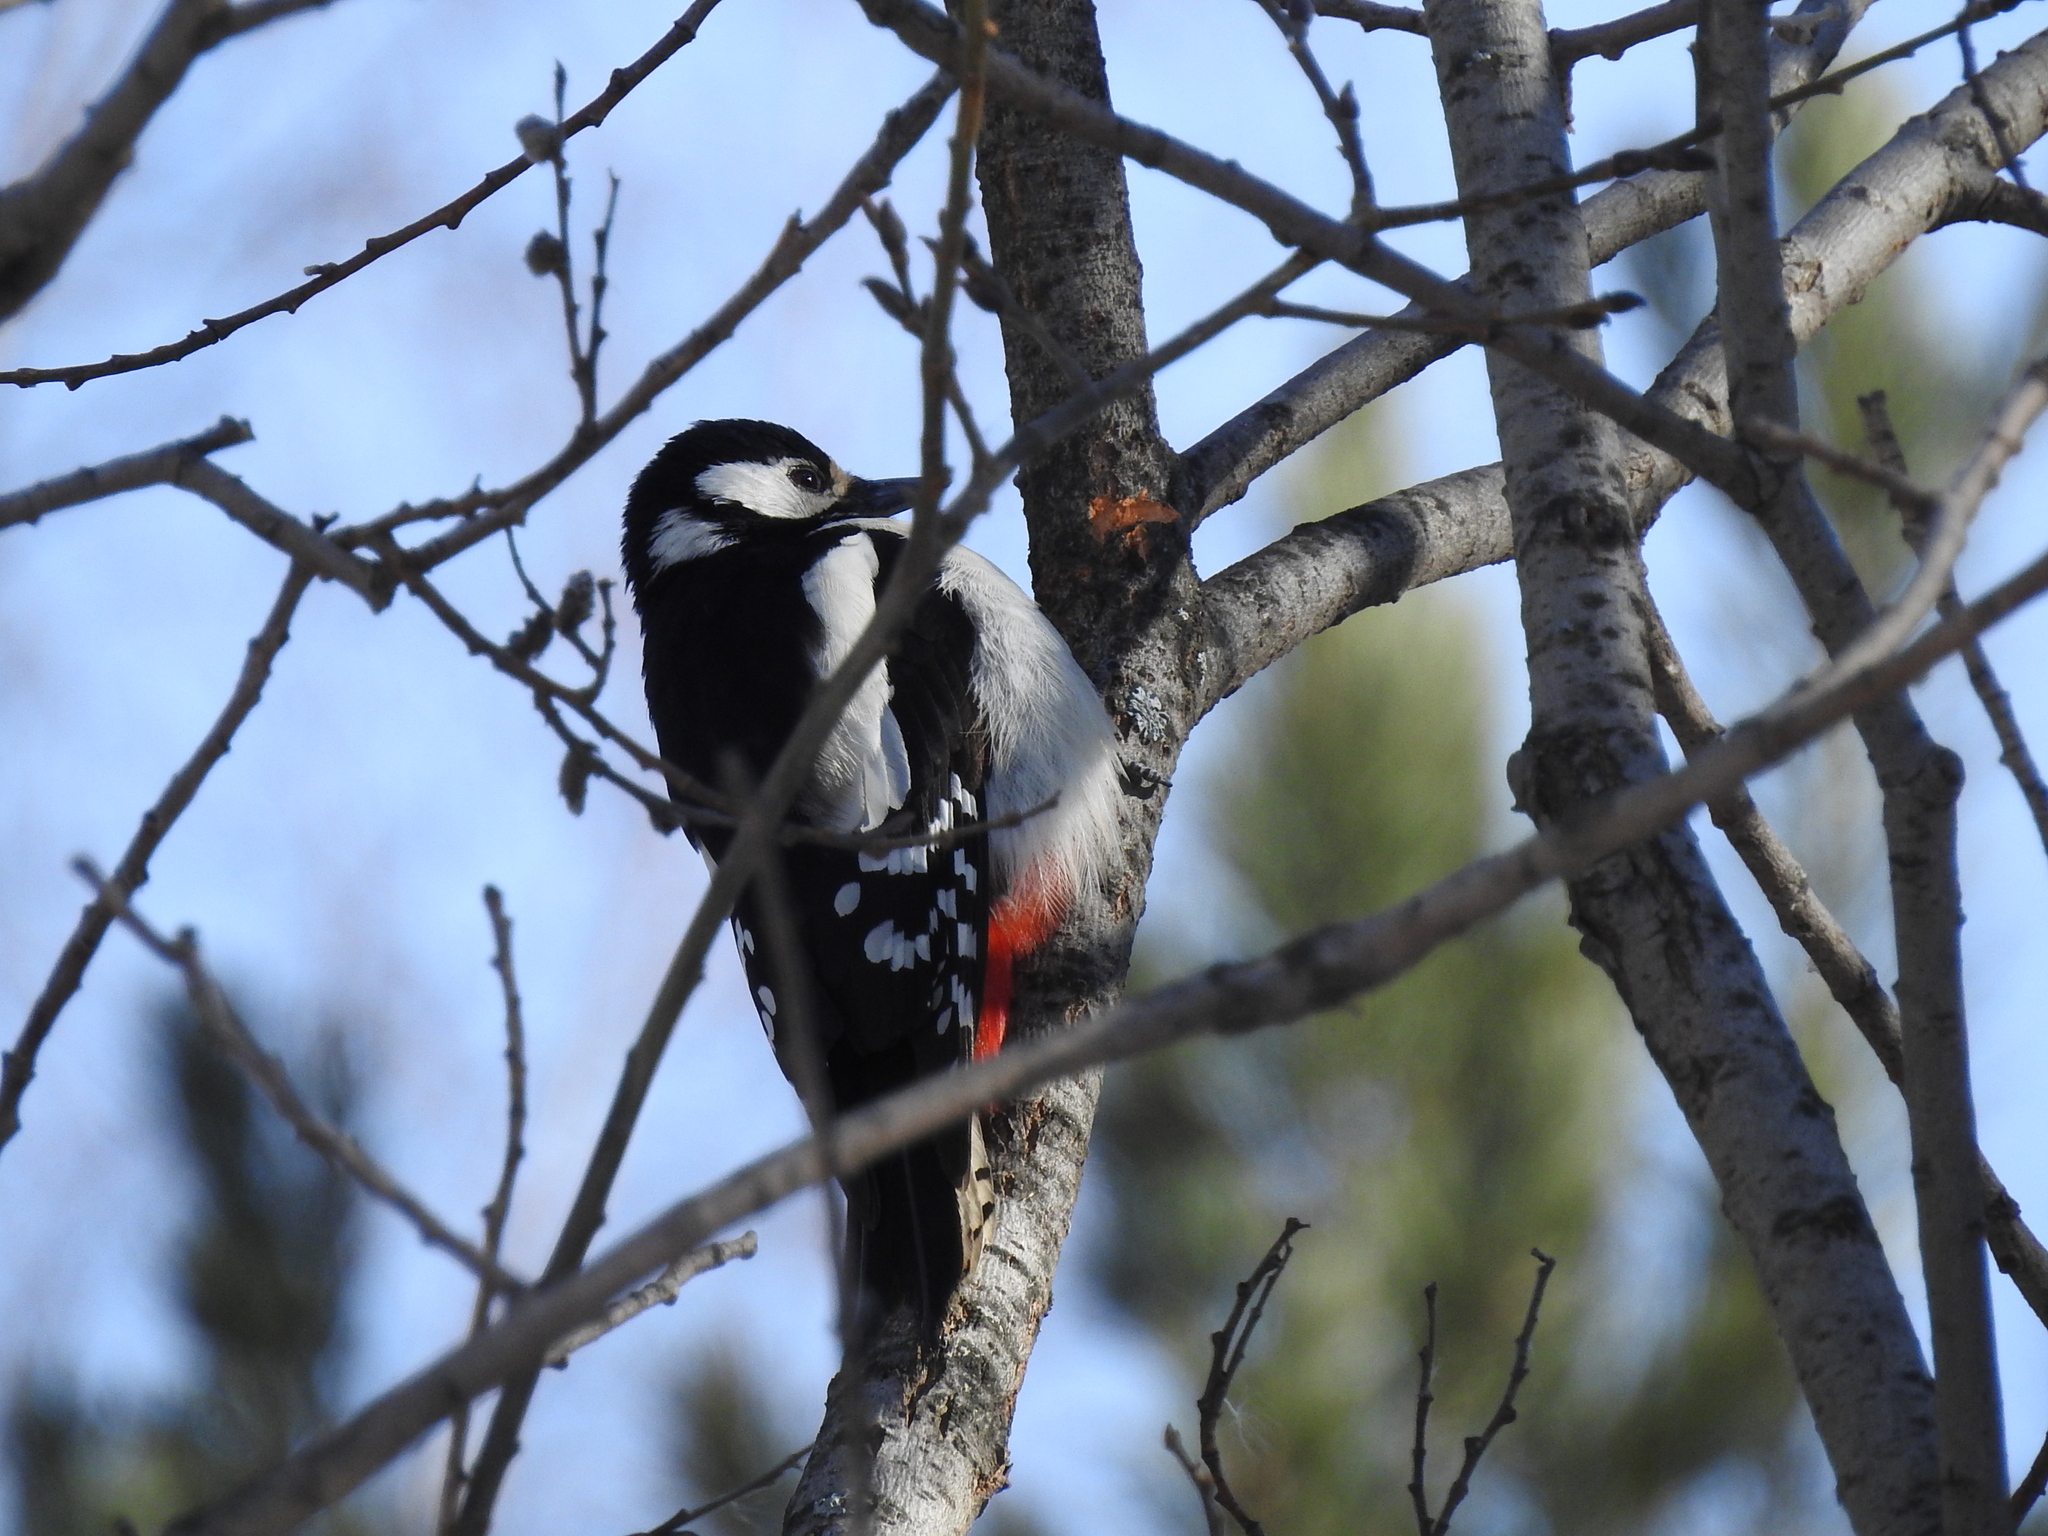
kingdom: Animalia
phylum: Chordata
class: Aves
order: Piciformes
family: Picidae
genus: Dendrocopos
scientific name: Dendrocopos major
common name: Great spotted woodpecker
